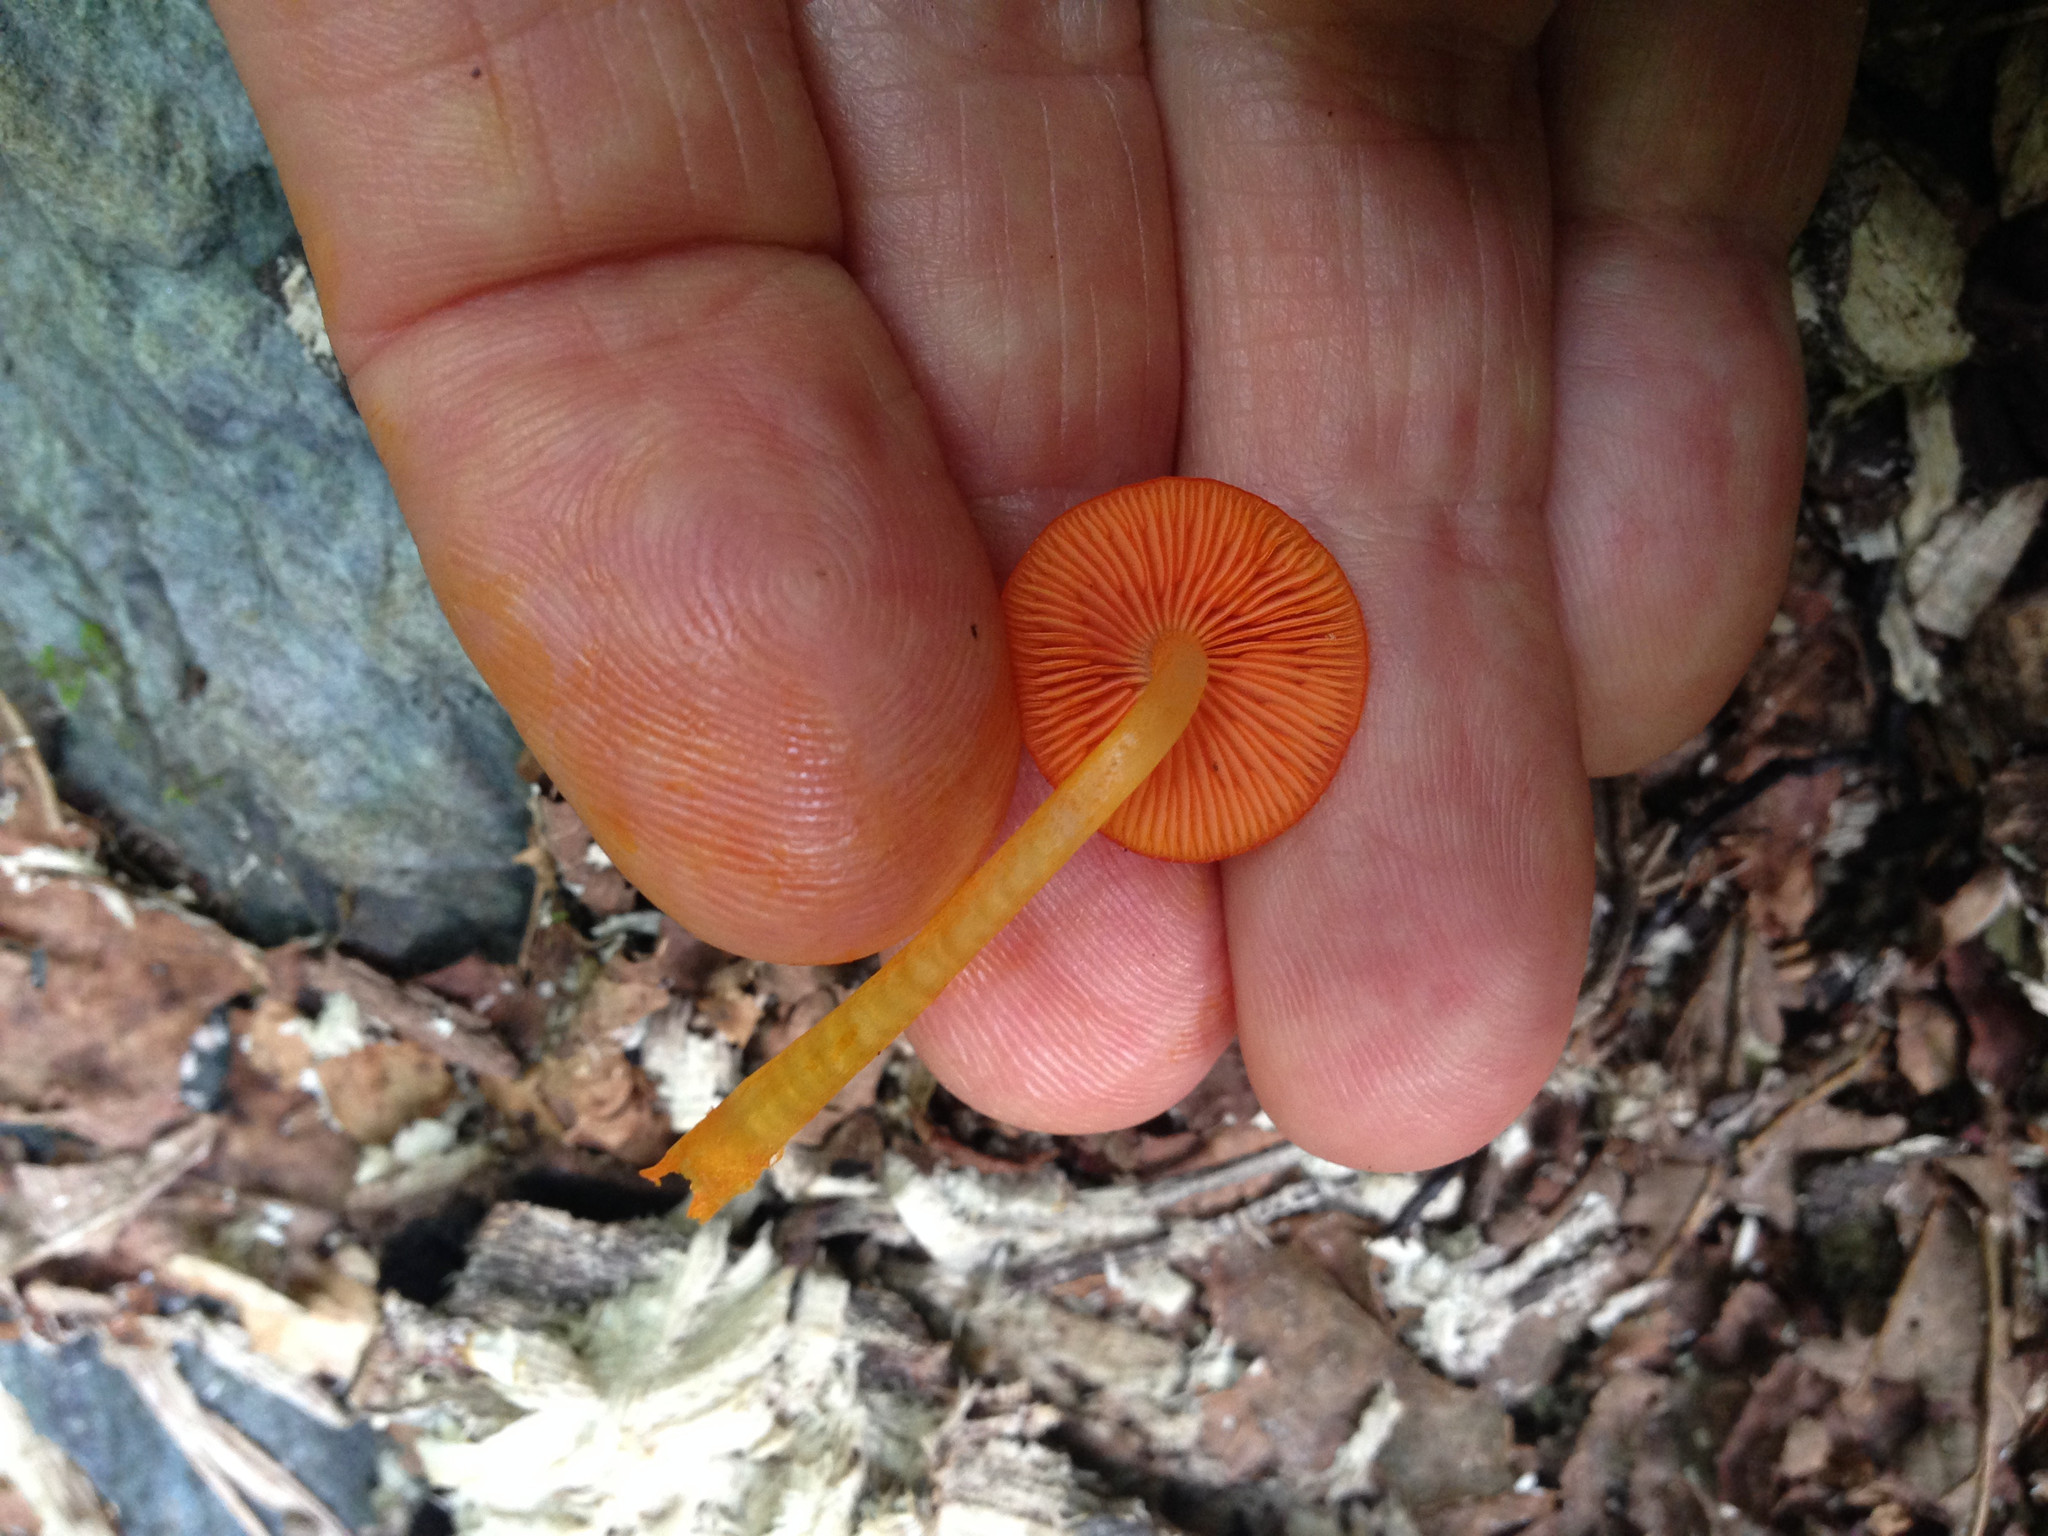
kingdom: Fungi
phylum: Basidiomycota
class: Agaricomycetes
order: Agaricales
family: Mycenaceae
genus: Mycena
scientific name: Mycena leaiana
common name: Orange mycena
